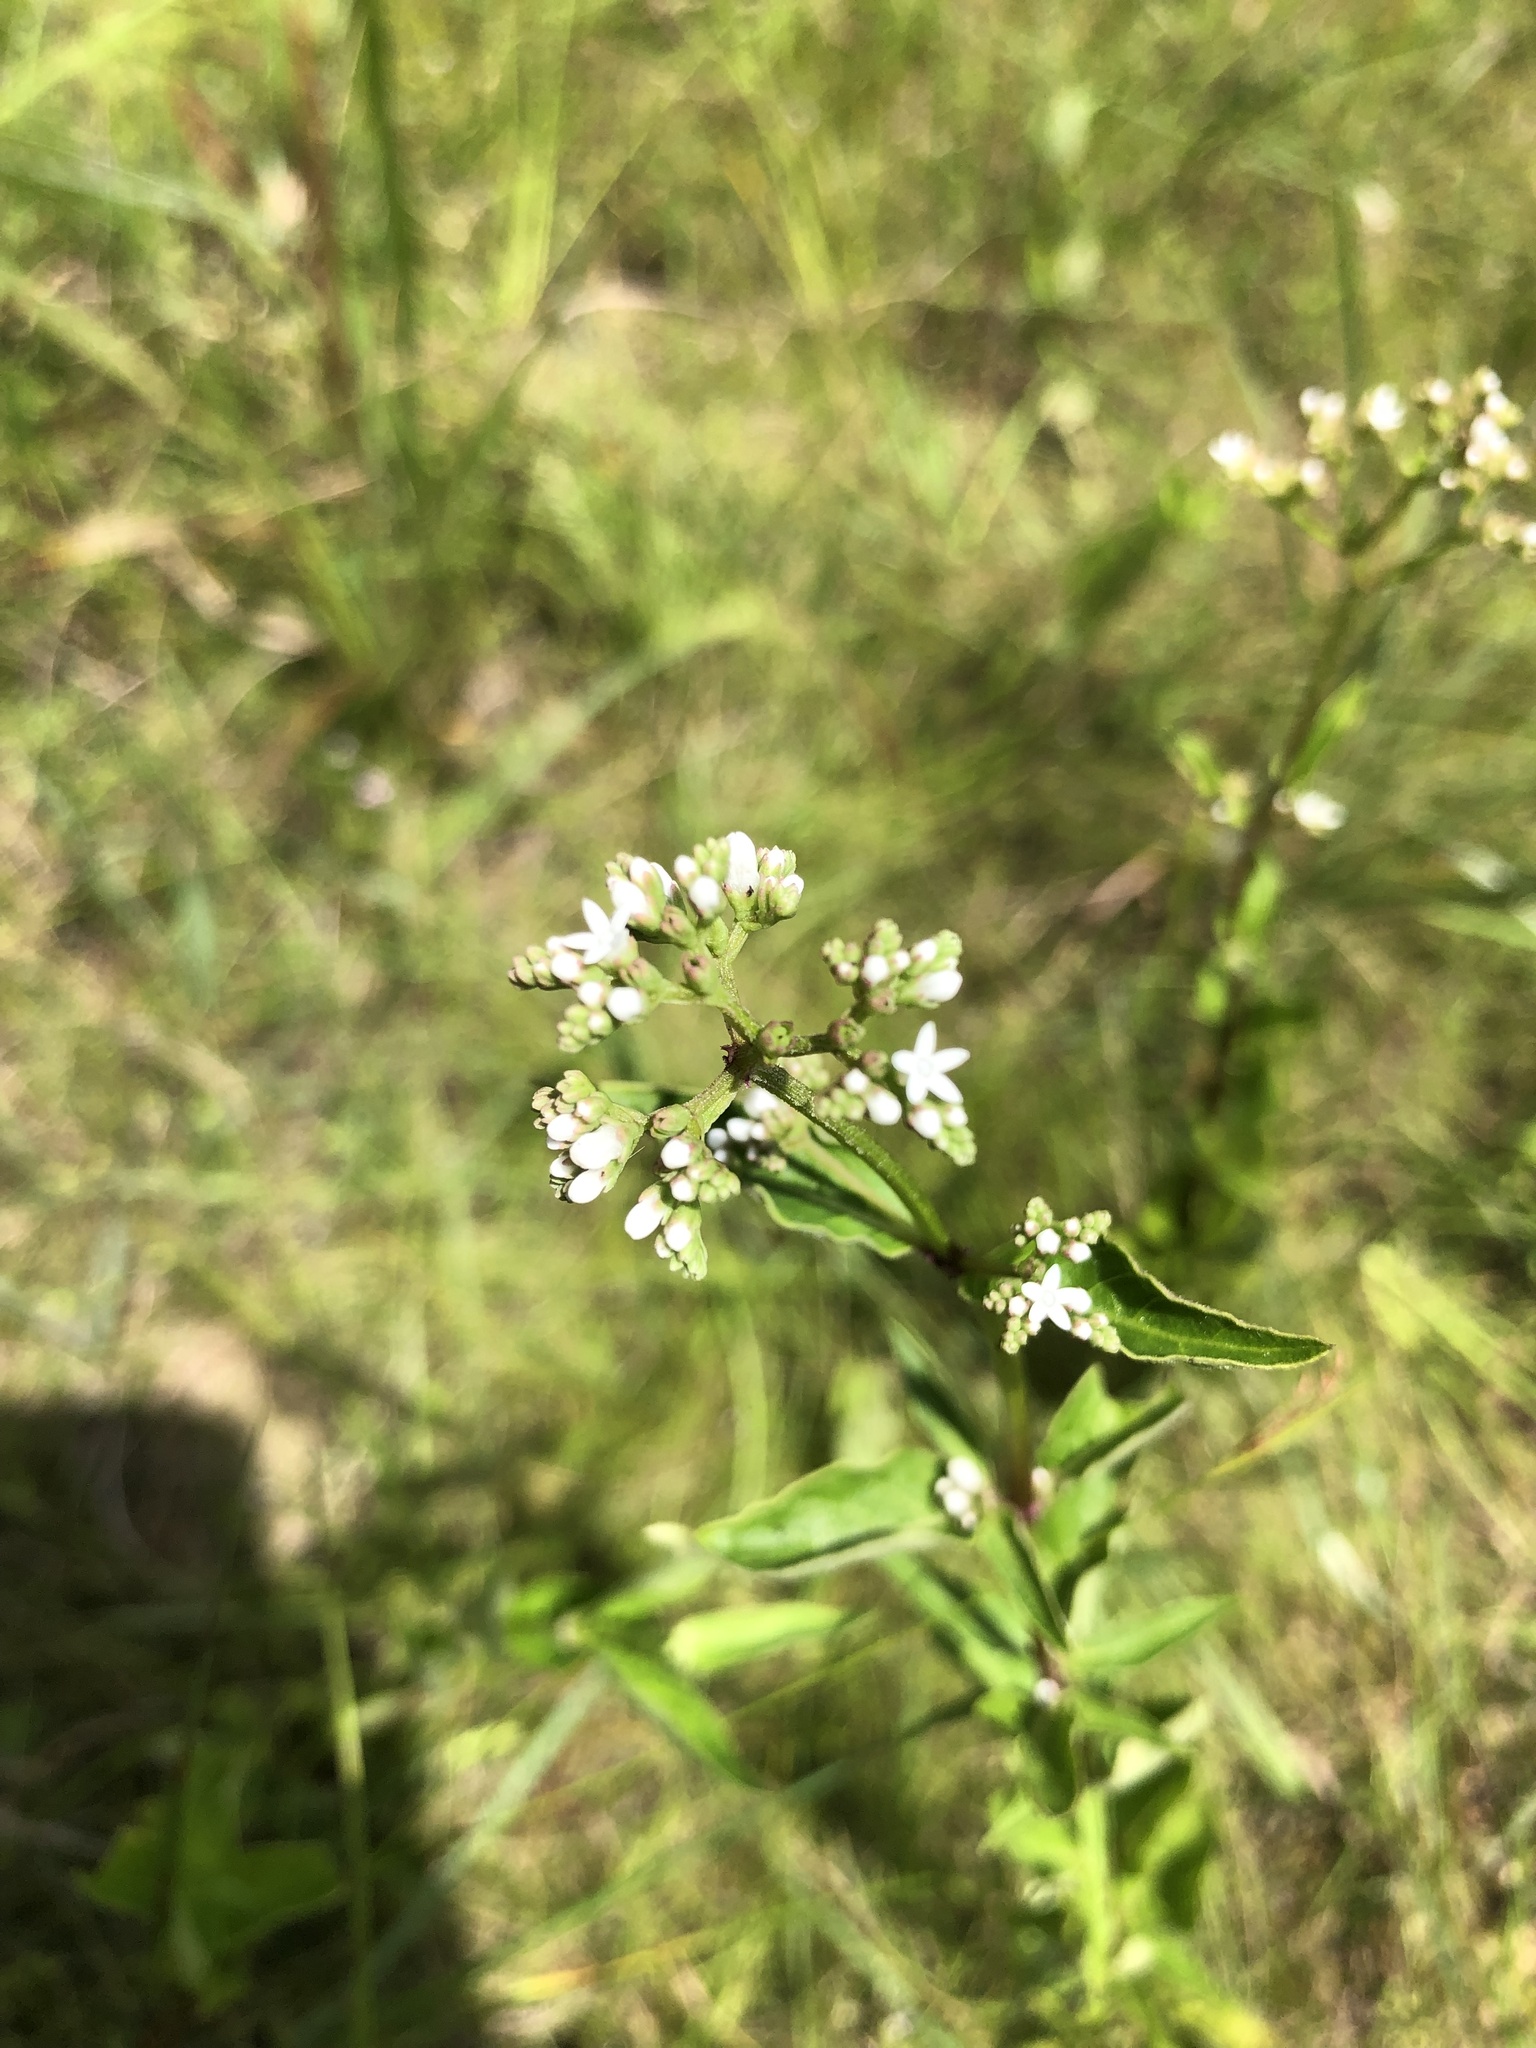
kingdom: Plantae
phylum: Tracheophyta
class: Magnoliopsida
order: Gentianales
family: Loganiaceae
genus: Mitreola
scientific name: Mitreola petiolata
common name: Lax hornpod
